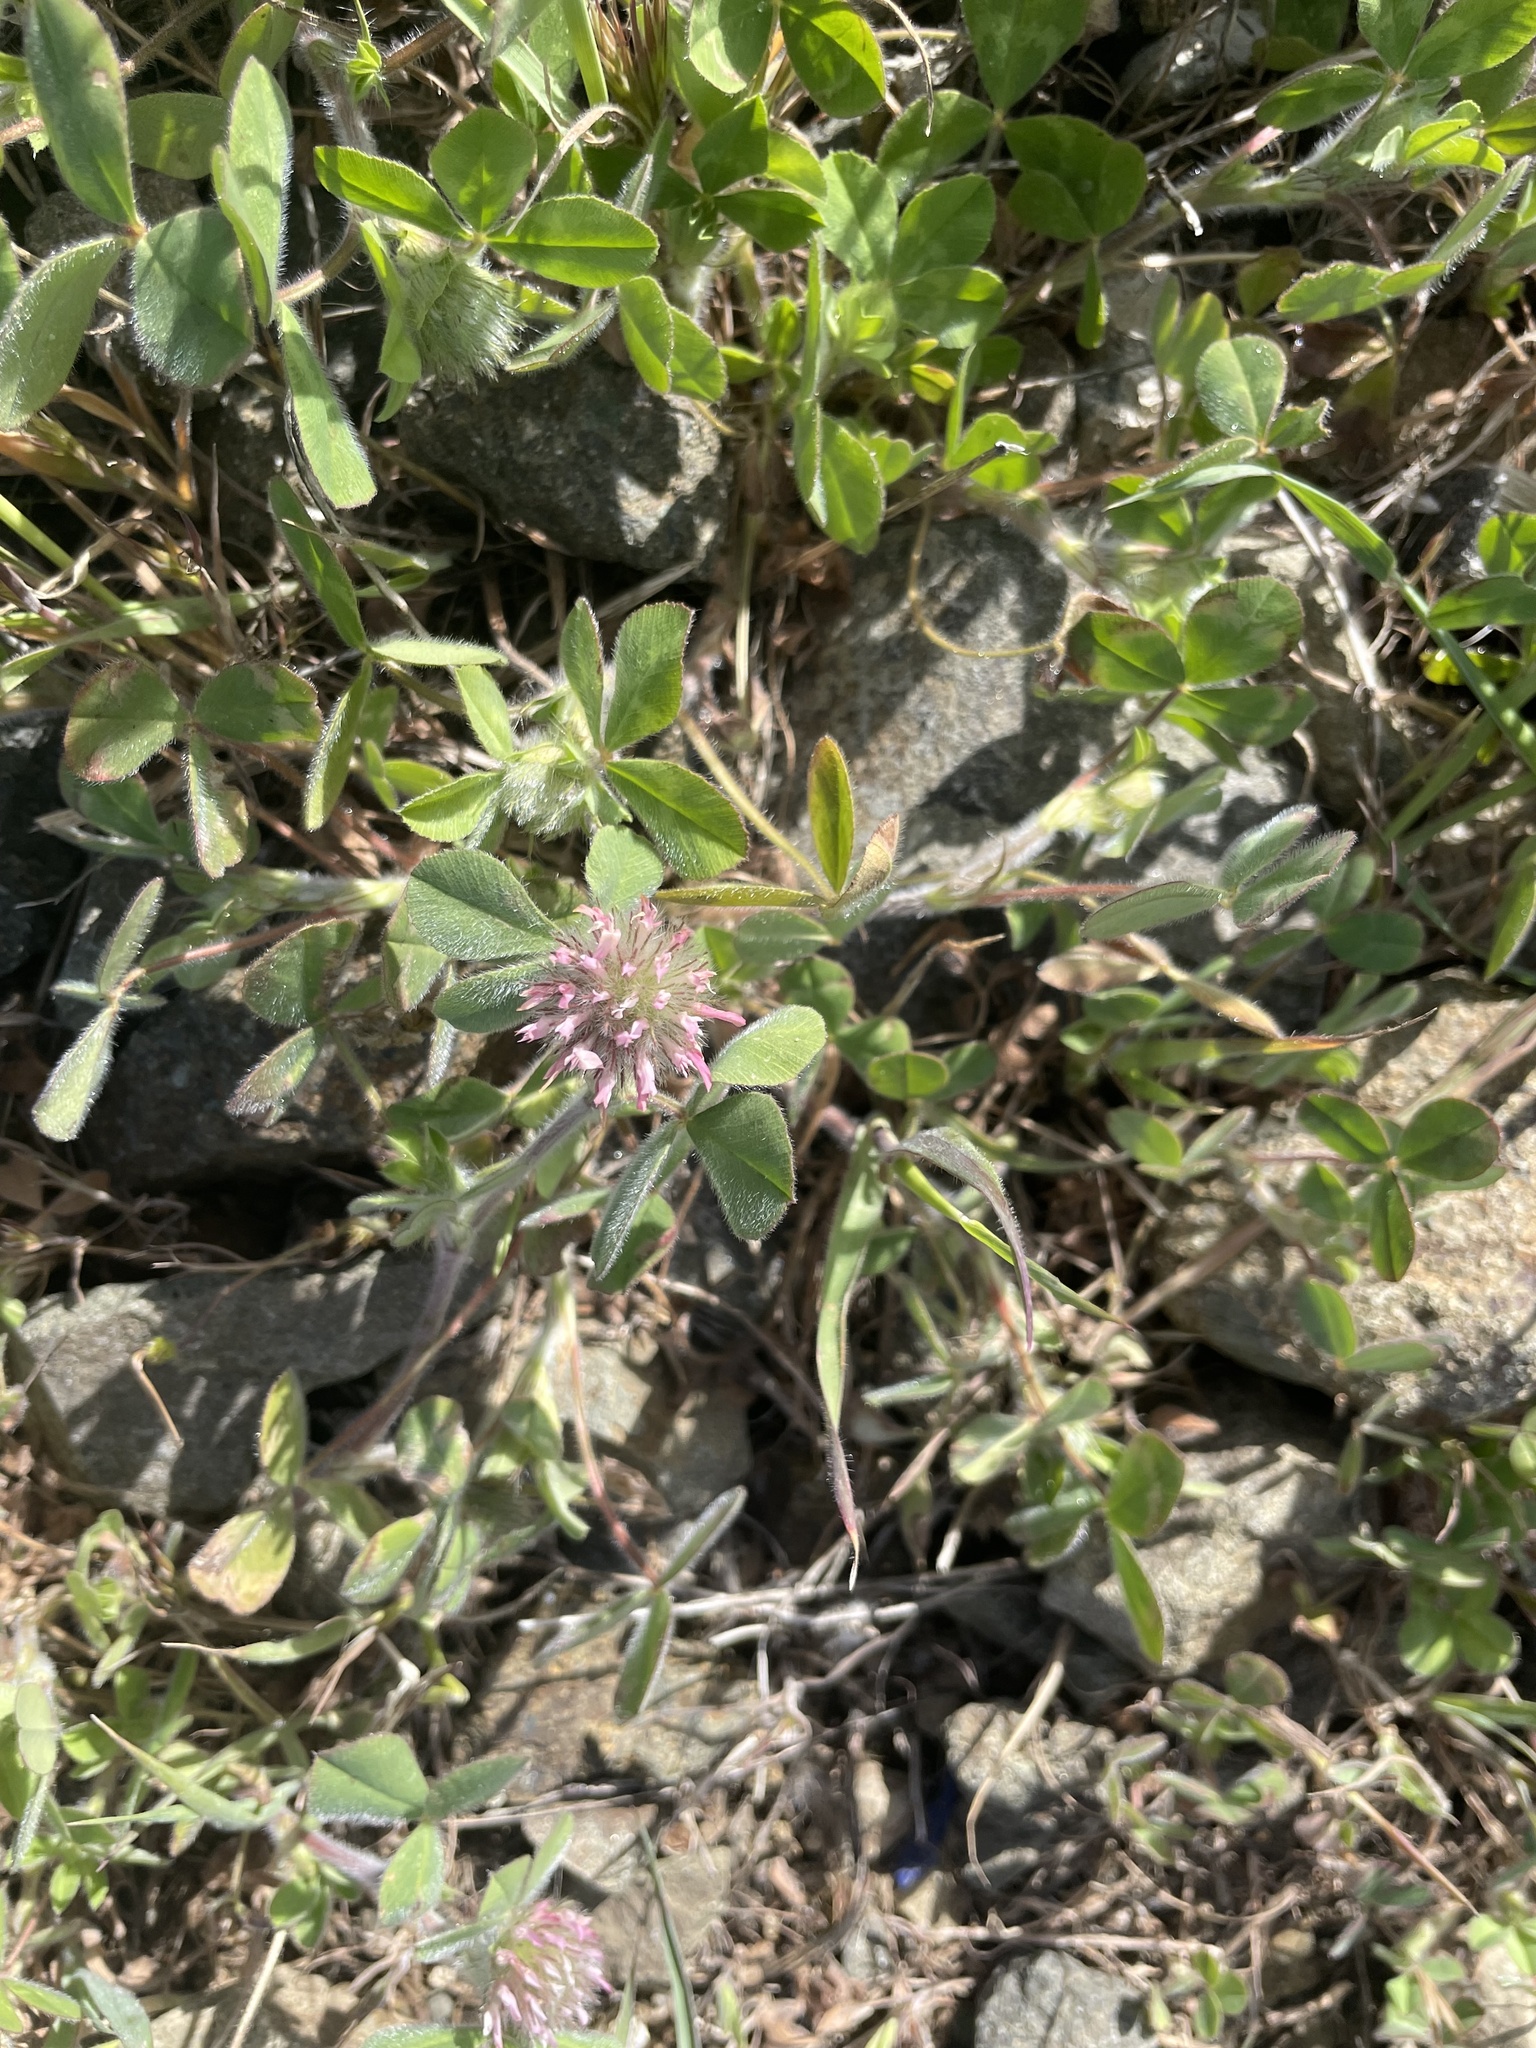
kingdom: Plantae
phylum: Tracheophyta
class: Magnoliopsida
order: Fabales
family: Fabaceae
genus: Trifolium
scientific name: Trifolium hirtum
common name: Rose clover
